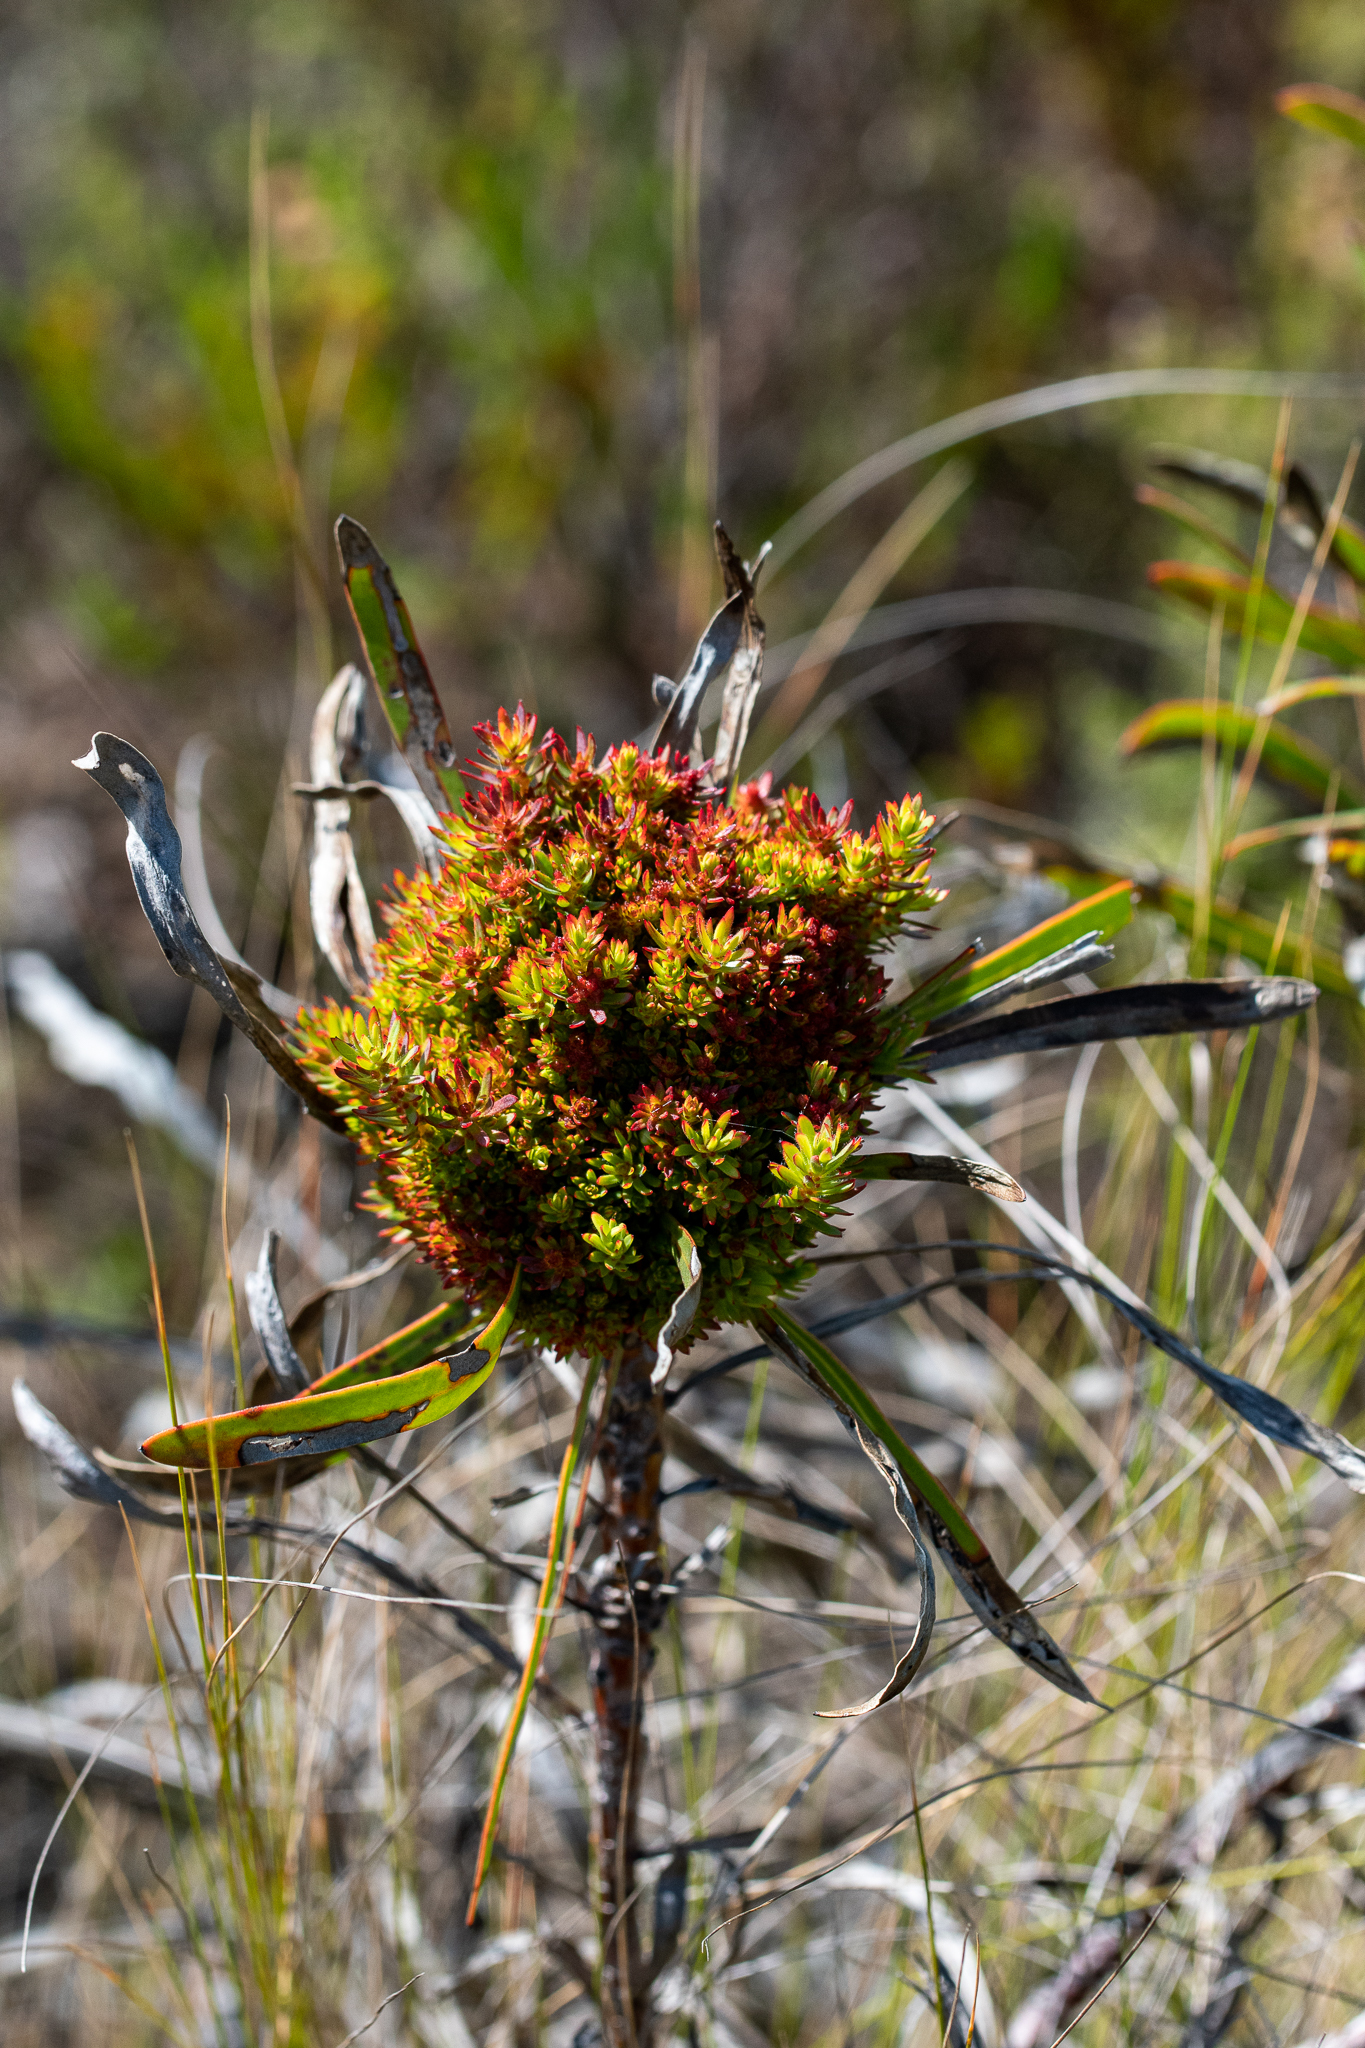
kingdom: Bacteria
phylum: Firmicutes
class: Bacilli
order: Acholeplasmatales
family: Acholeplasmataceae
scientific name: Acholeplasmataceae
